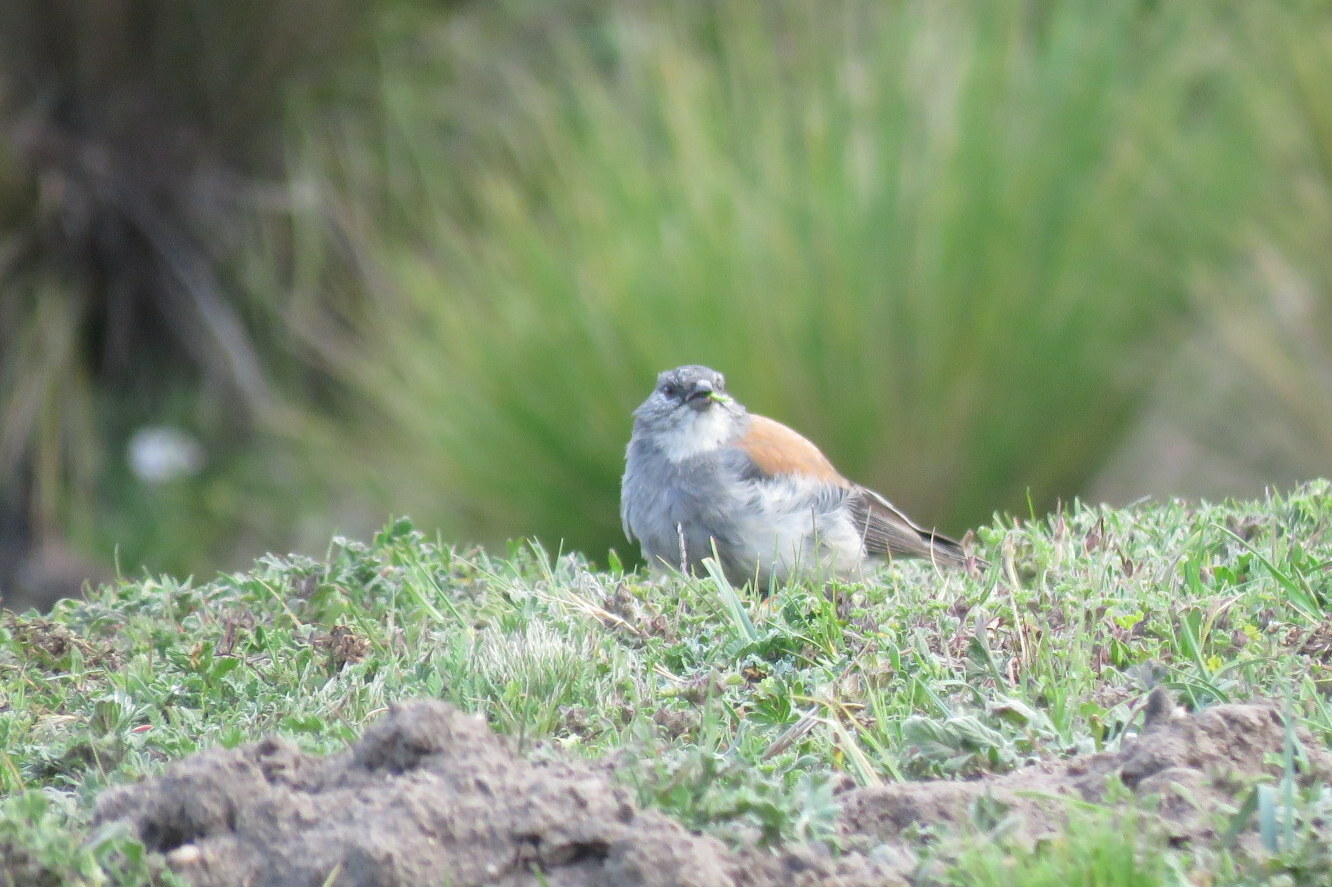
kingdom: Animalia
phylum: Chordata
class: Aves
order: Passeriformes
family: Thraupidae
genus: Idiopsar
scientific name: Idiopsar dorsalis
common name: Red-backed sierra finch
